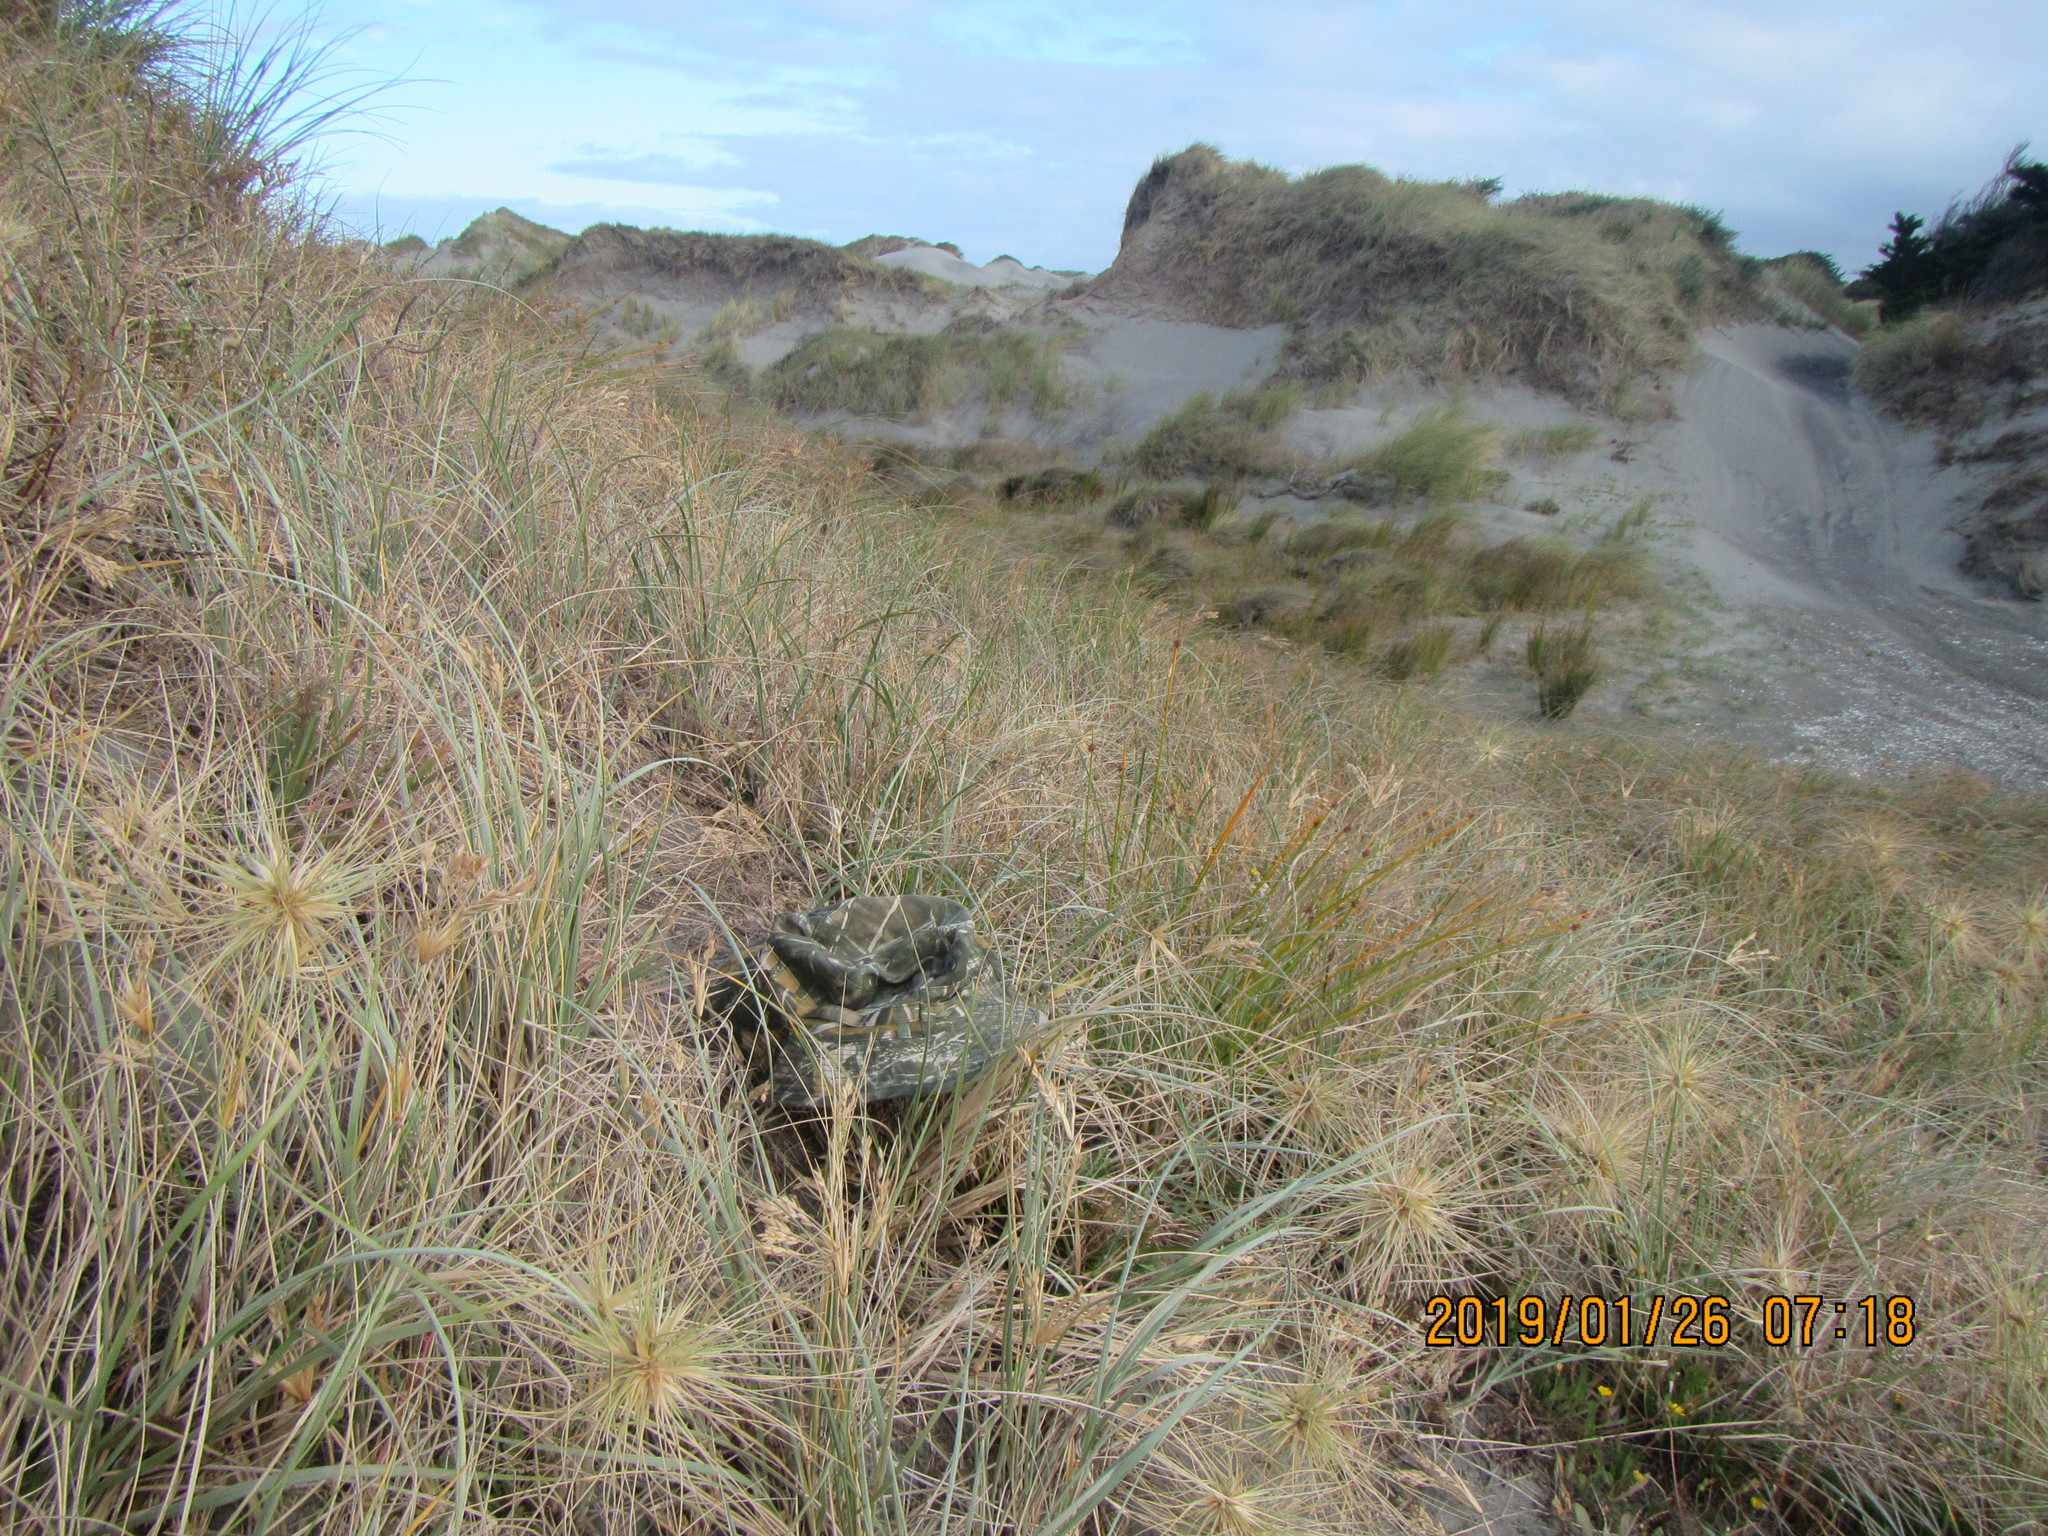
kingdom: Animalia
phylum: Arthropoda
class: Insecta
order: Hemiptera
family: Pentatomidae
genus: Nezara
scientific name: Nezara viridula
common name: Southern green stink bug
